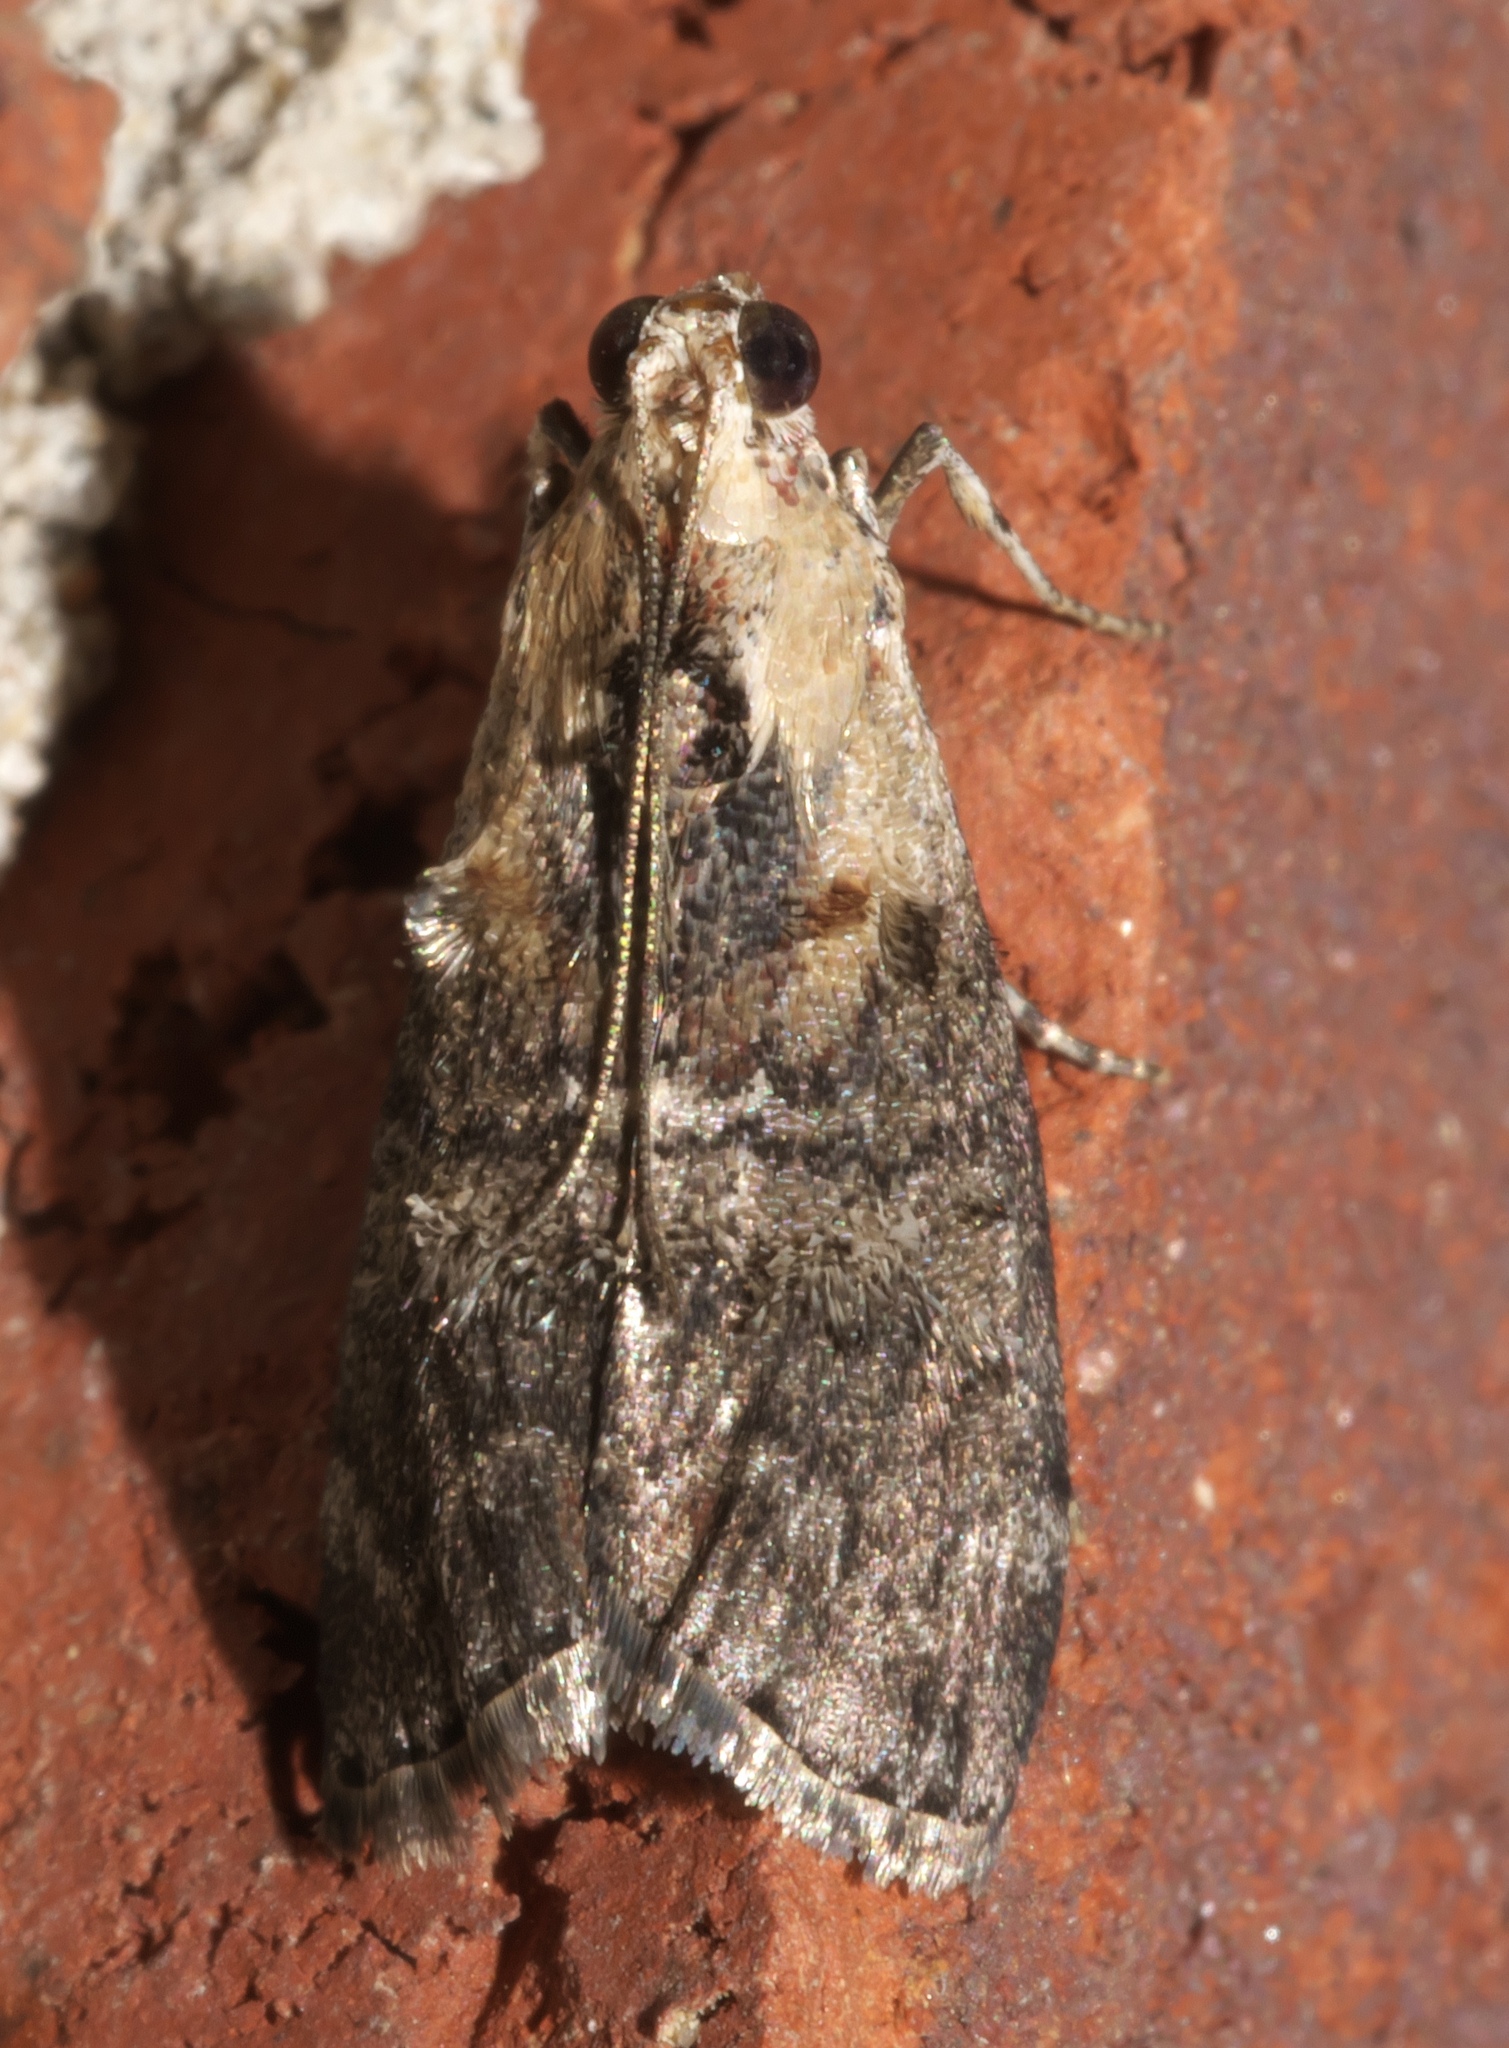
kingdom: Animalia
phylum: Arthropoda
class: Insecta
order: Lepidoptera
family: Pyralidae
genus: Pococera
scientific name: Pococera expandens
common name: Striped oak webworm moth
